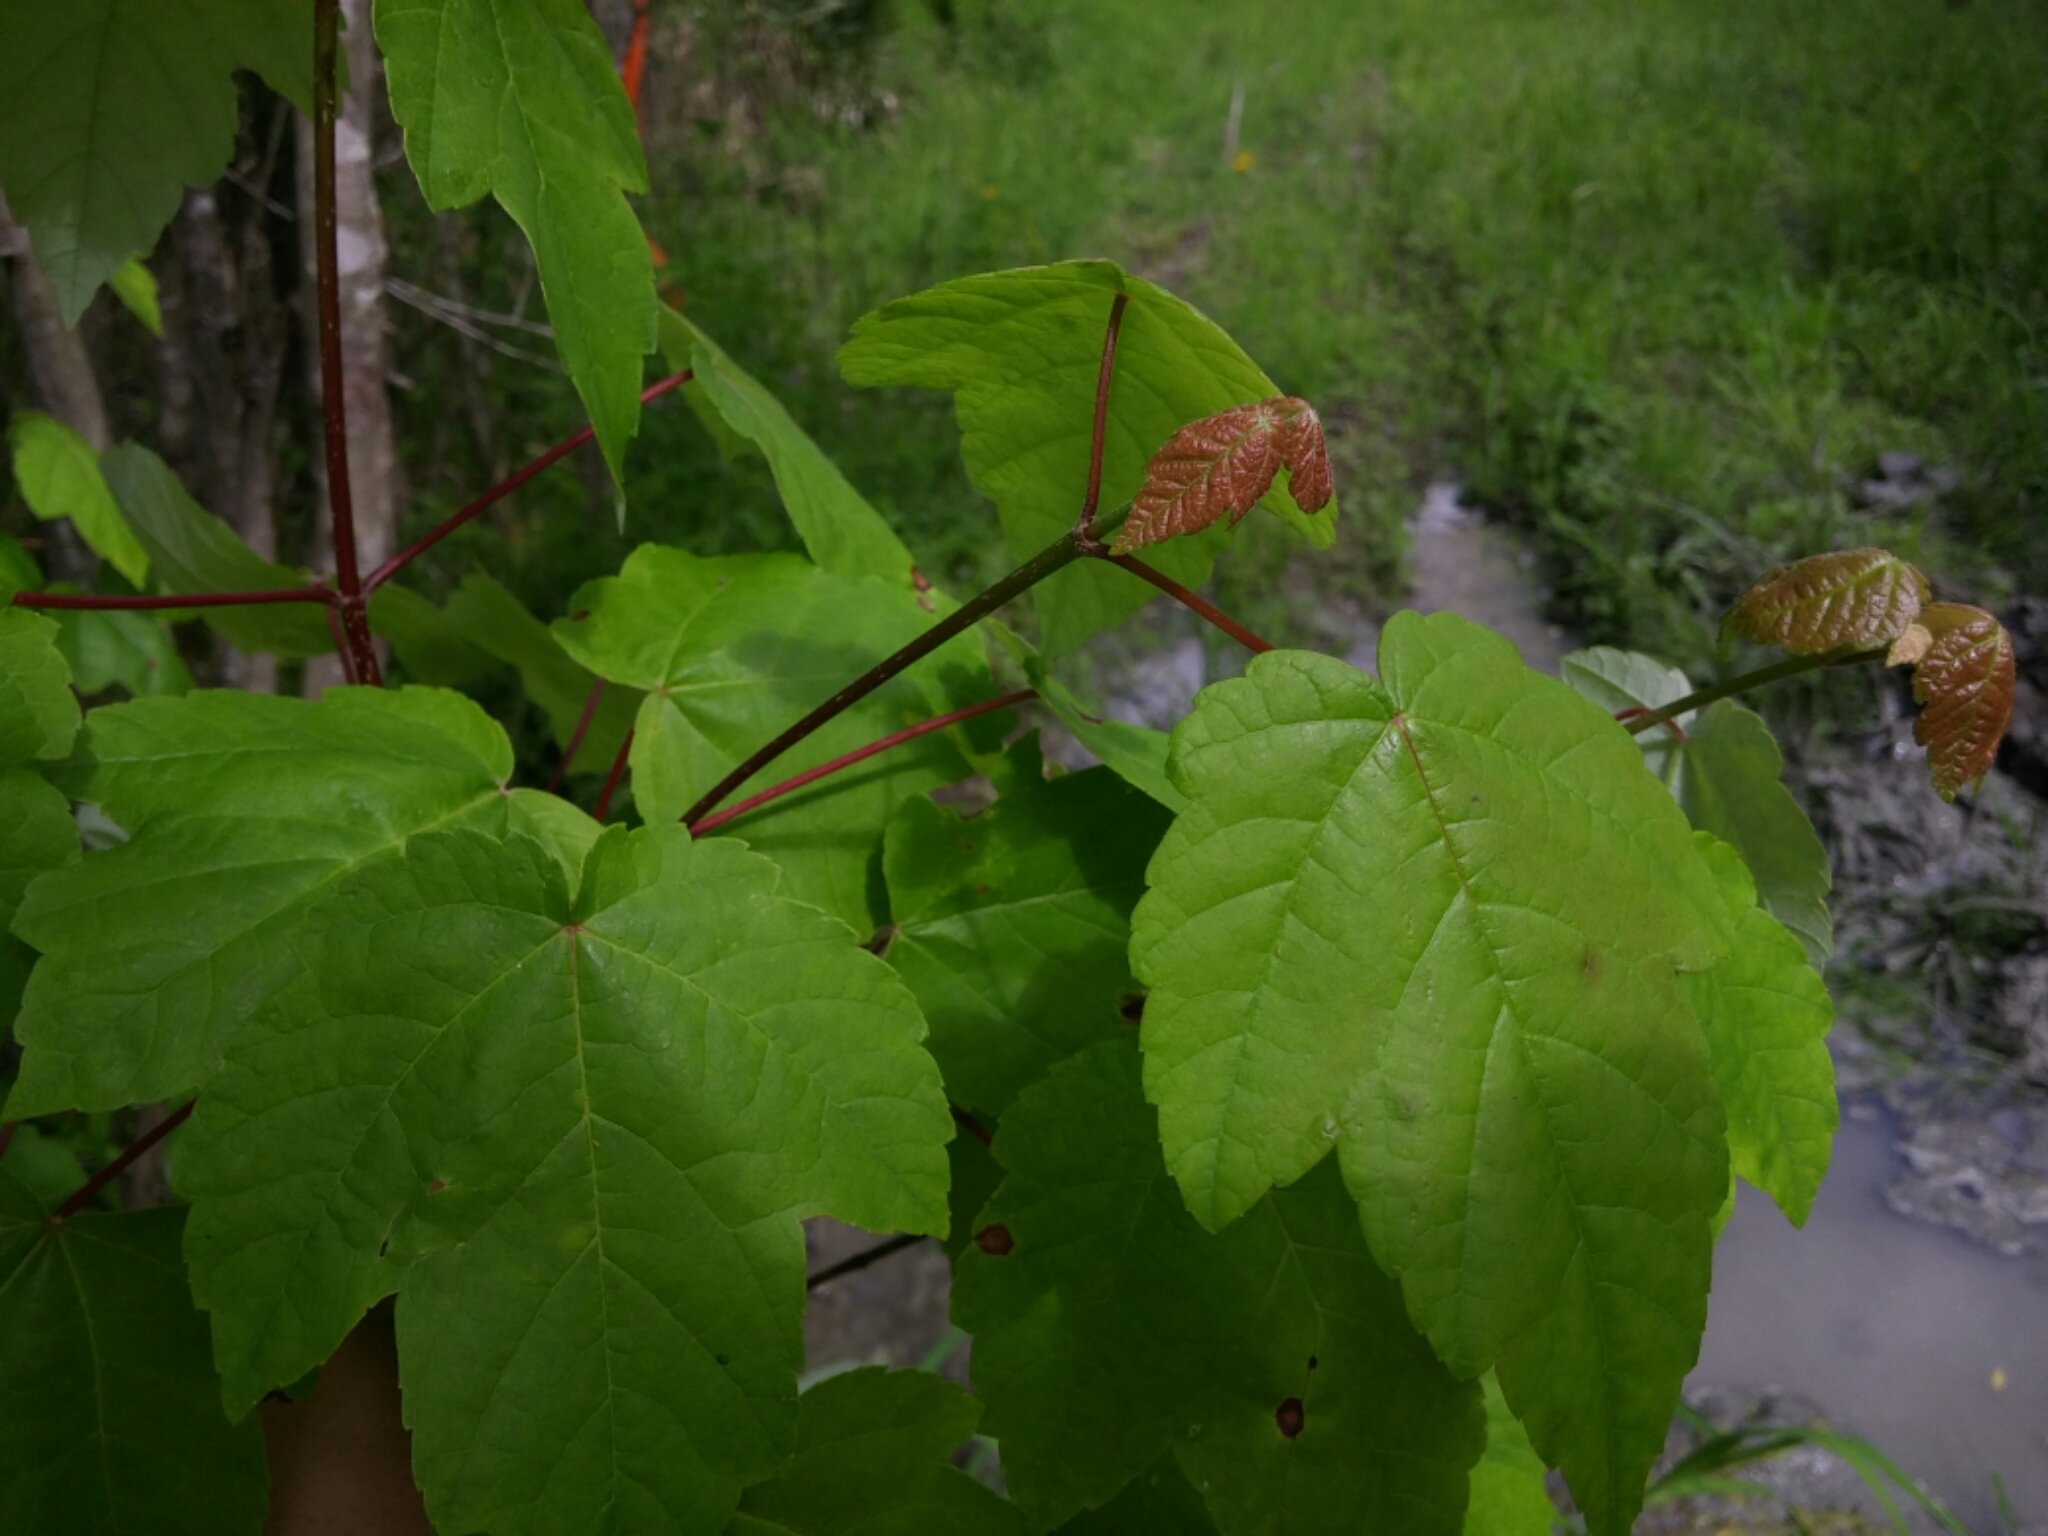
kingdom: Plantae
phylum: Tracheophyta
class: Magnoliopsida
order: Sapindales
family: Sapindaceae
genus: Acer
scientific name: Acer rubrum
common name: Red maple
